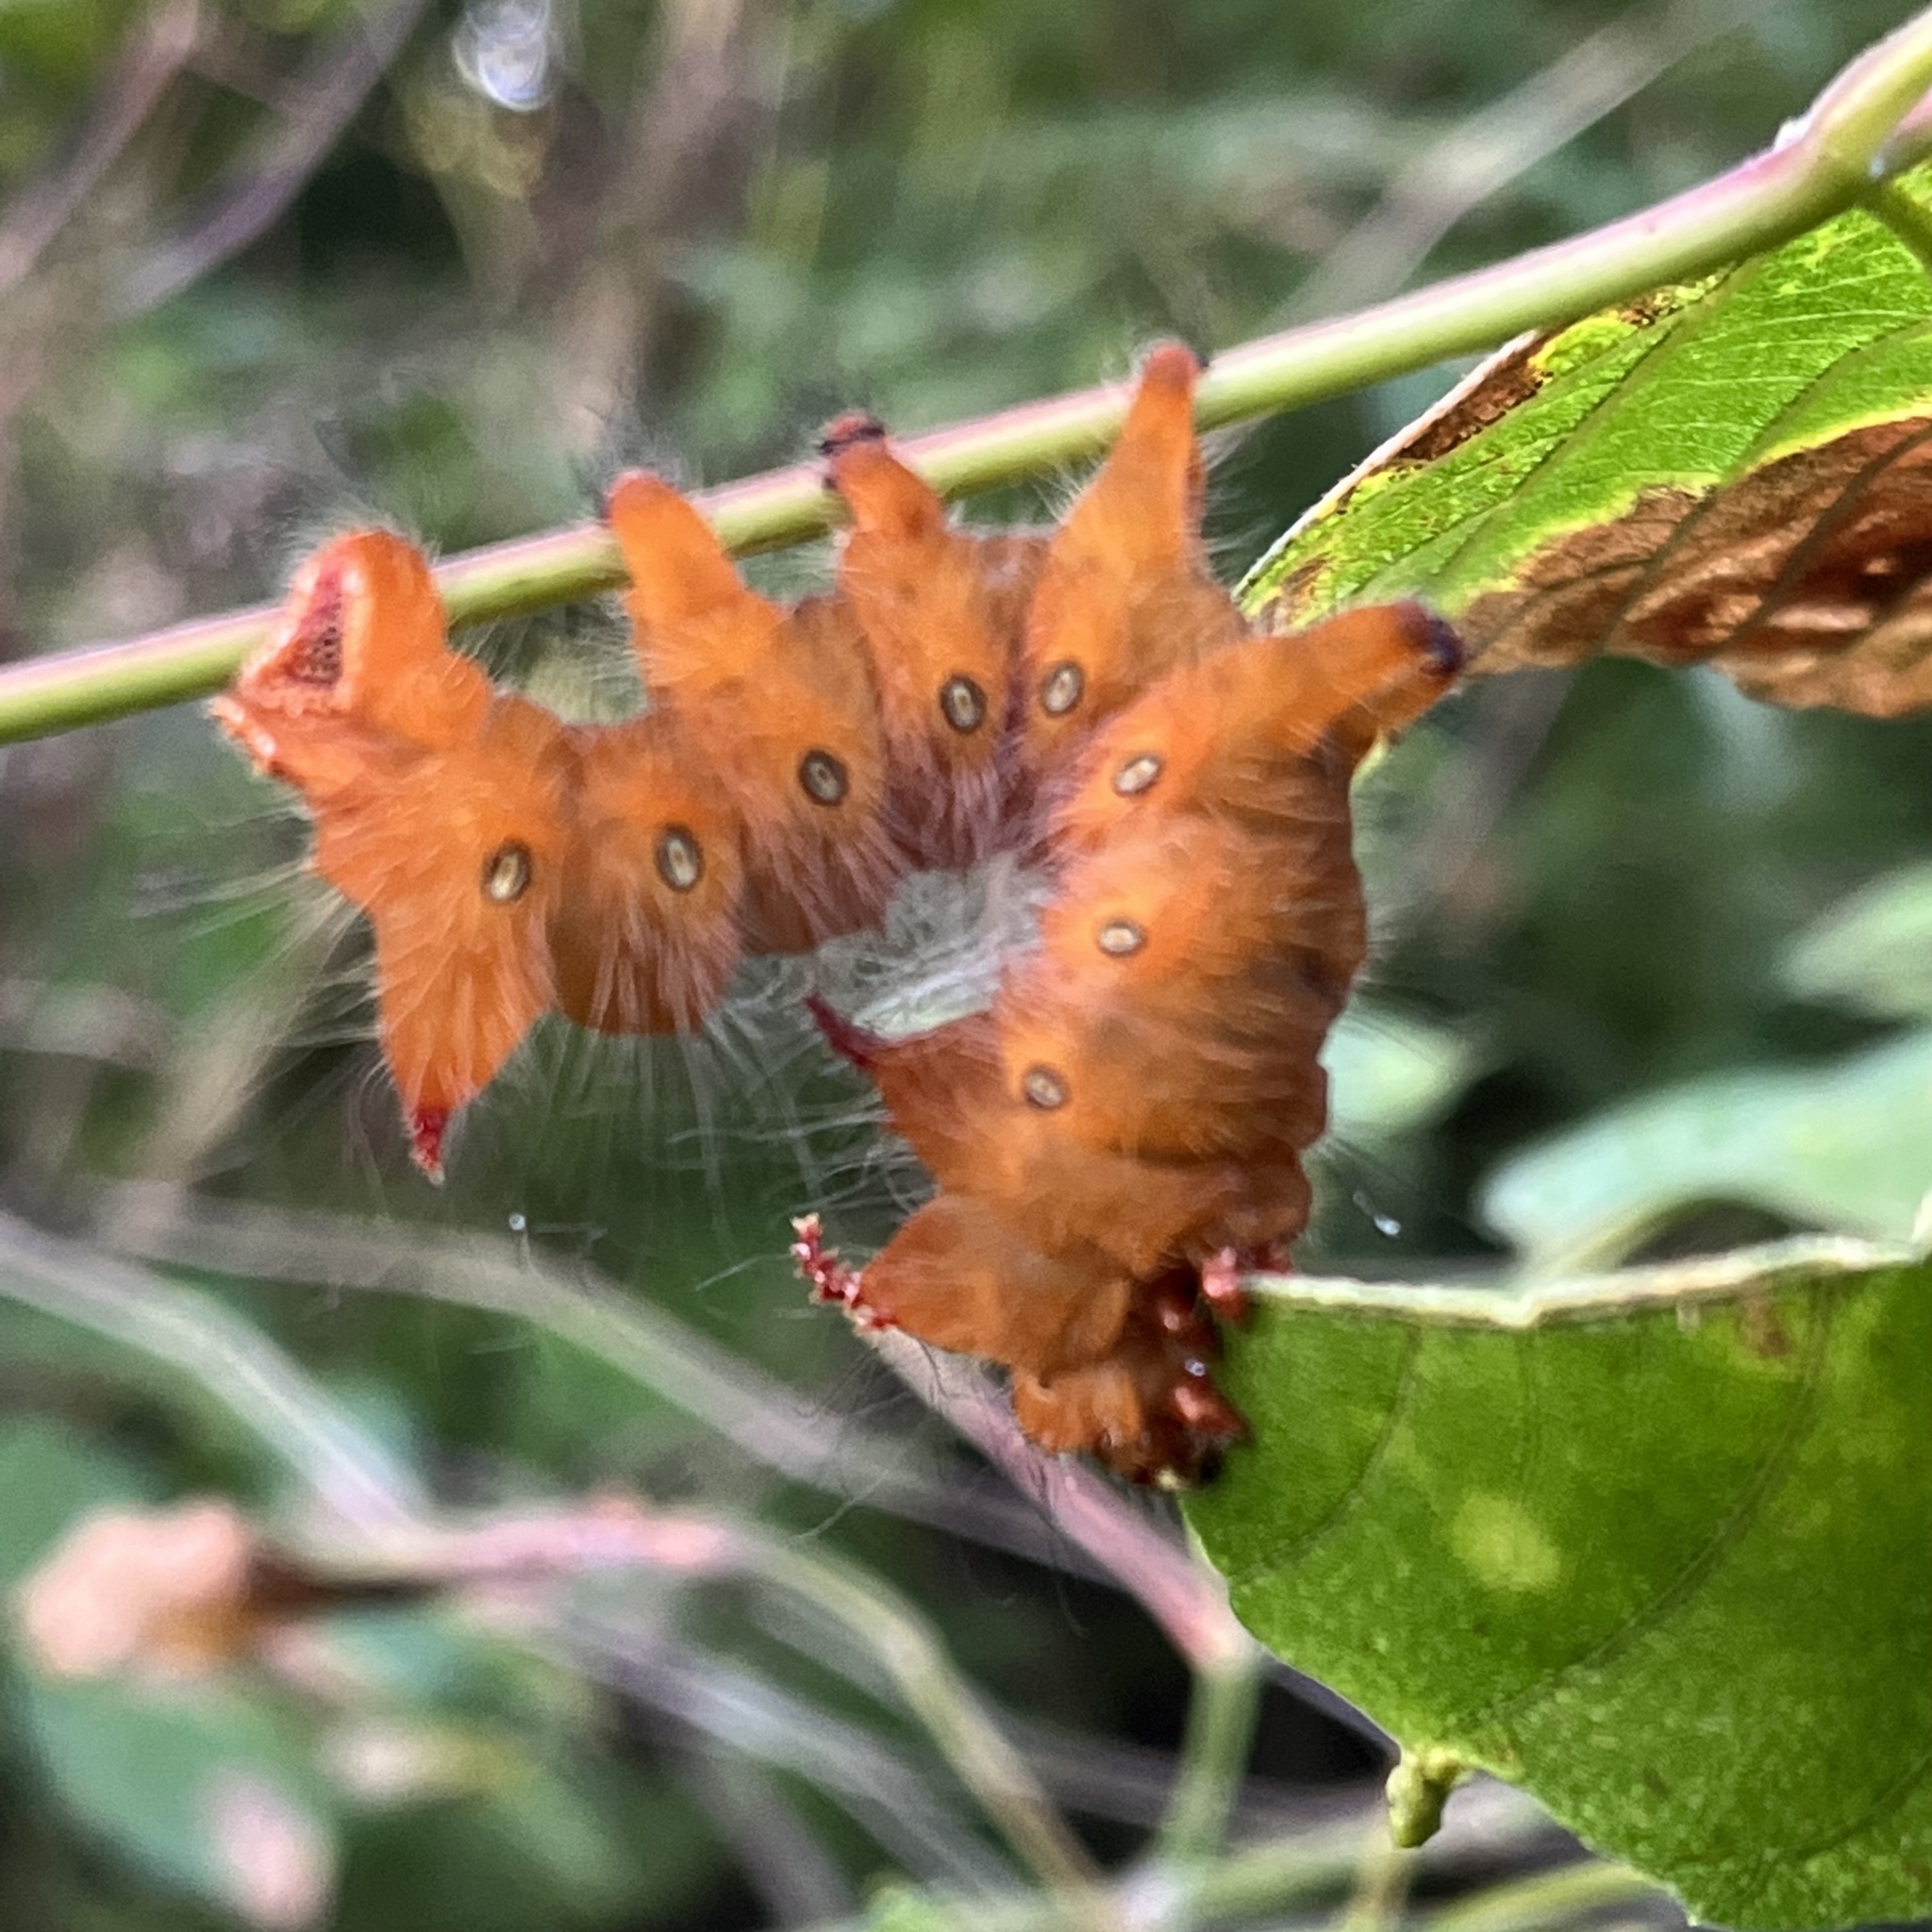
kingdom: Animalia
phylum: Arthropoda
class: Insecta
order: Lepidoptera
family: Saturniidae
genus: Eacles
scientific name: Eacles imperialis
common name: Imperial moth
